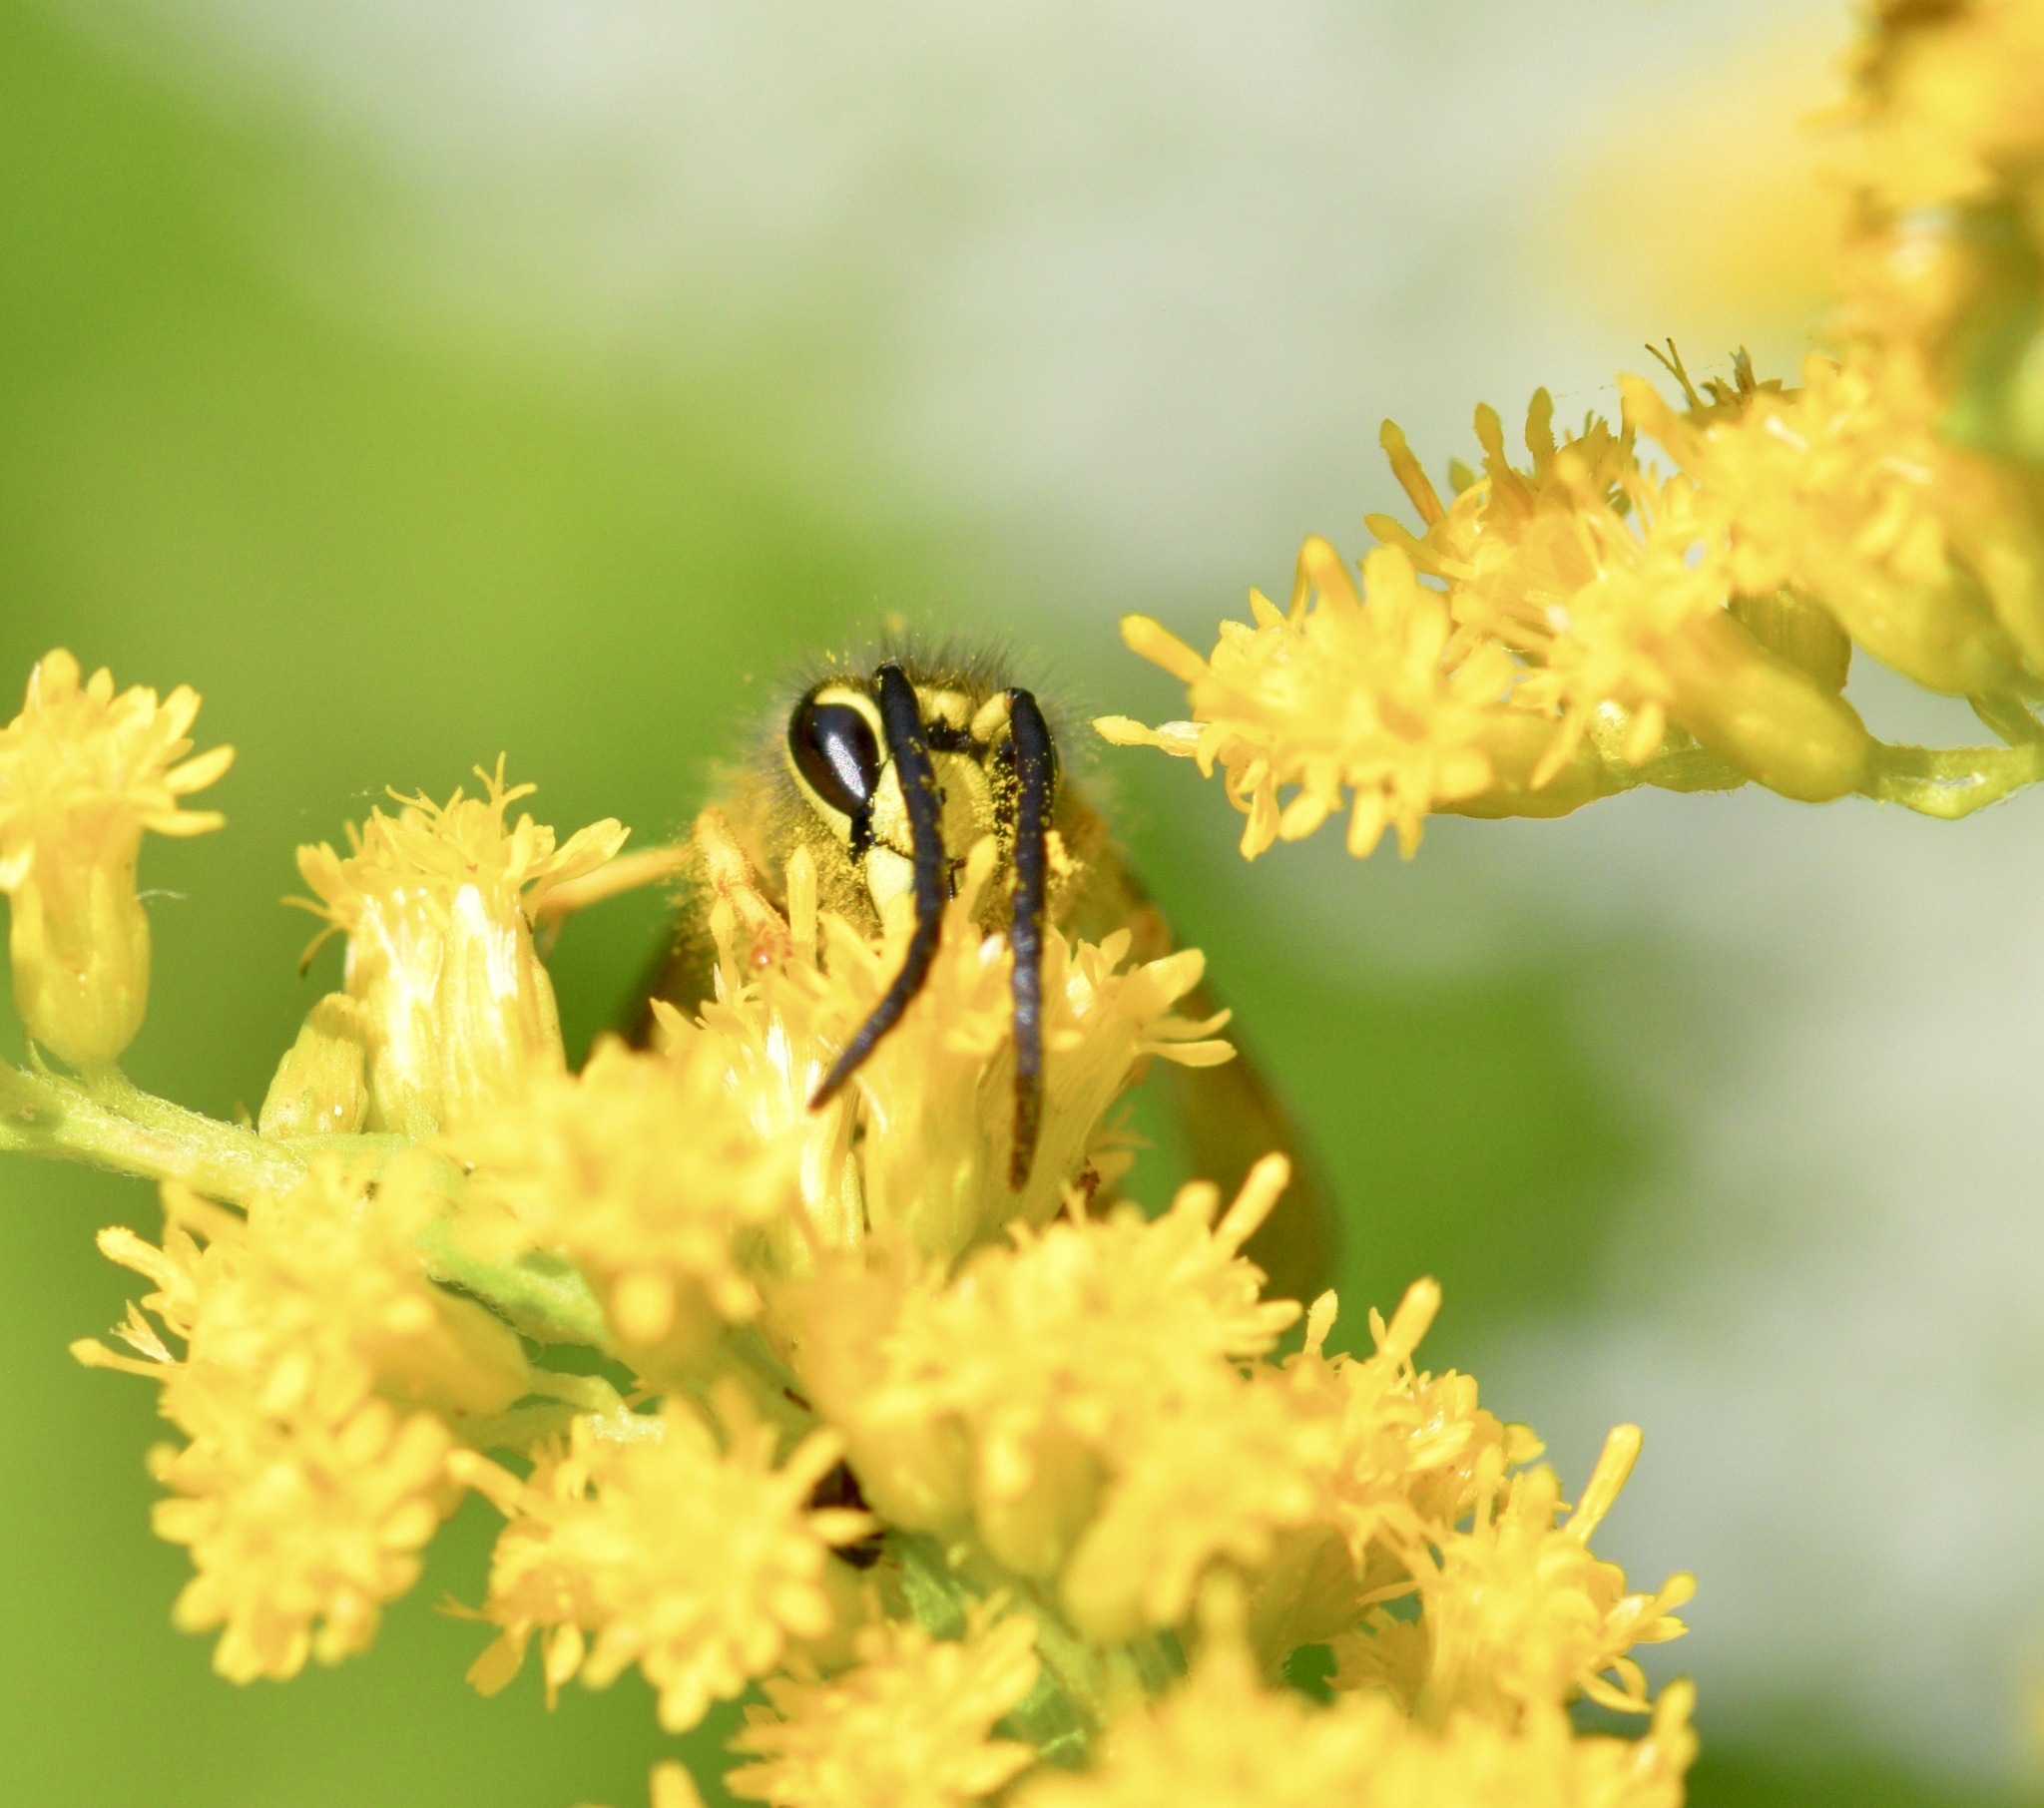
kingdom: Animalia
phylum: Arthropoda
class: Insecta
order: Hymenoptera
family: Vespidae
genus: Dolichovespula
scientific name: Dolichovespula arenaria
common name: Aerial yellowjacket
